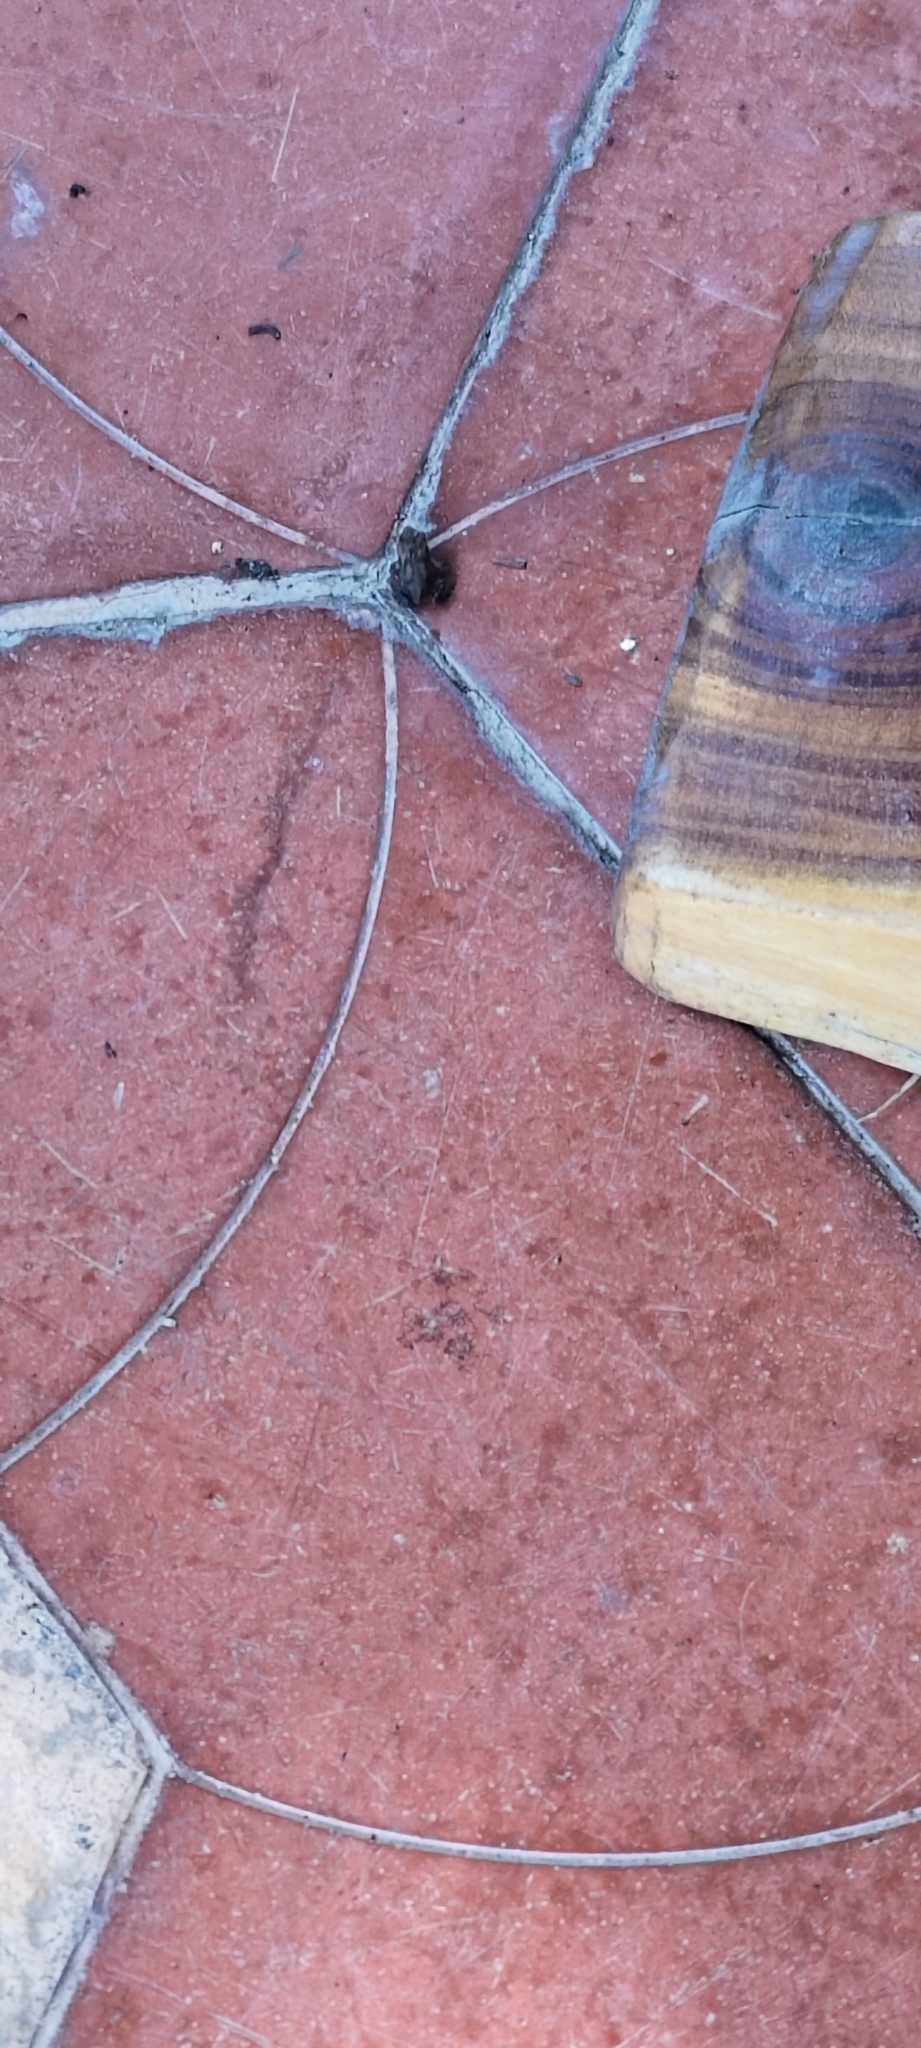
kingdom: Animalia
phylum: Chordata
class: Amphibia
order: Anura
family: Bufonidae
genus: Duttaphrynus
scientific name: Duttaphrynus melanostictus
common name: Common sunda toad
